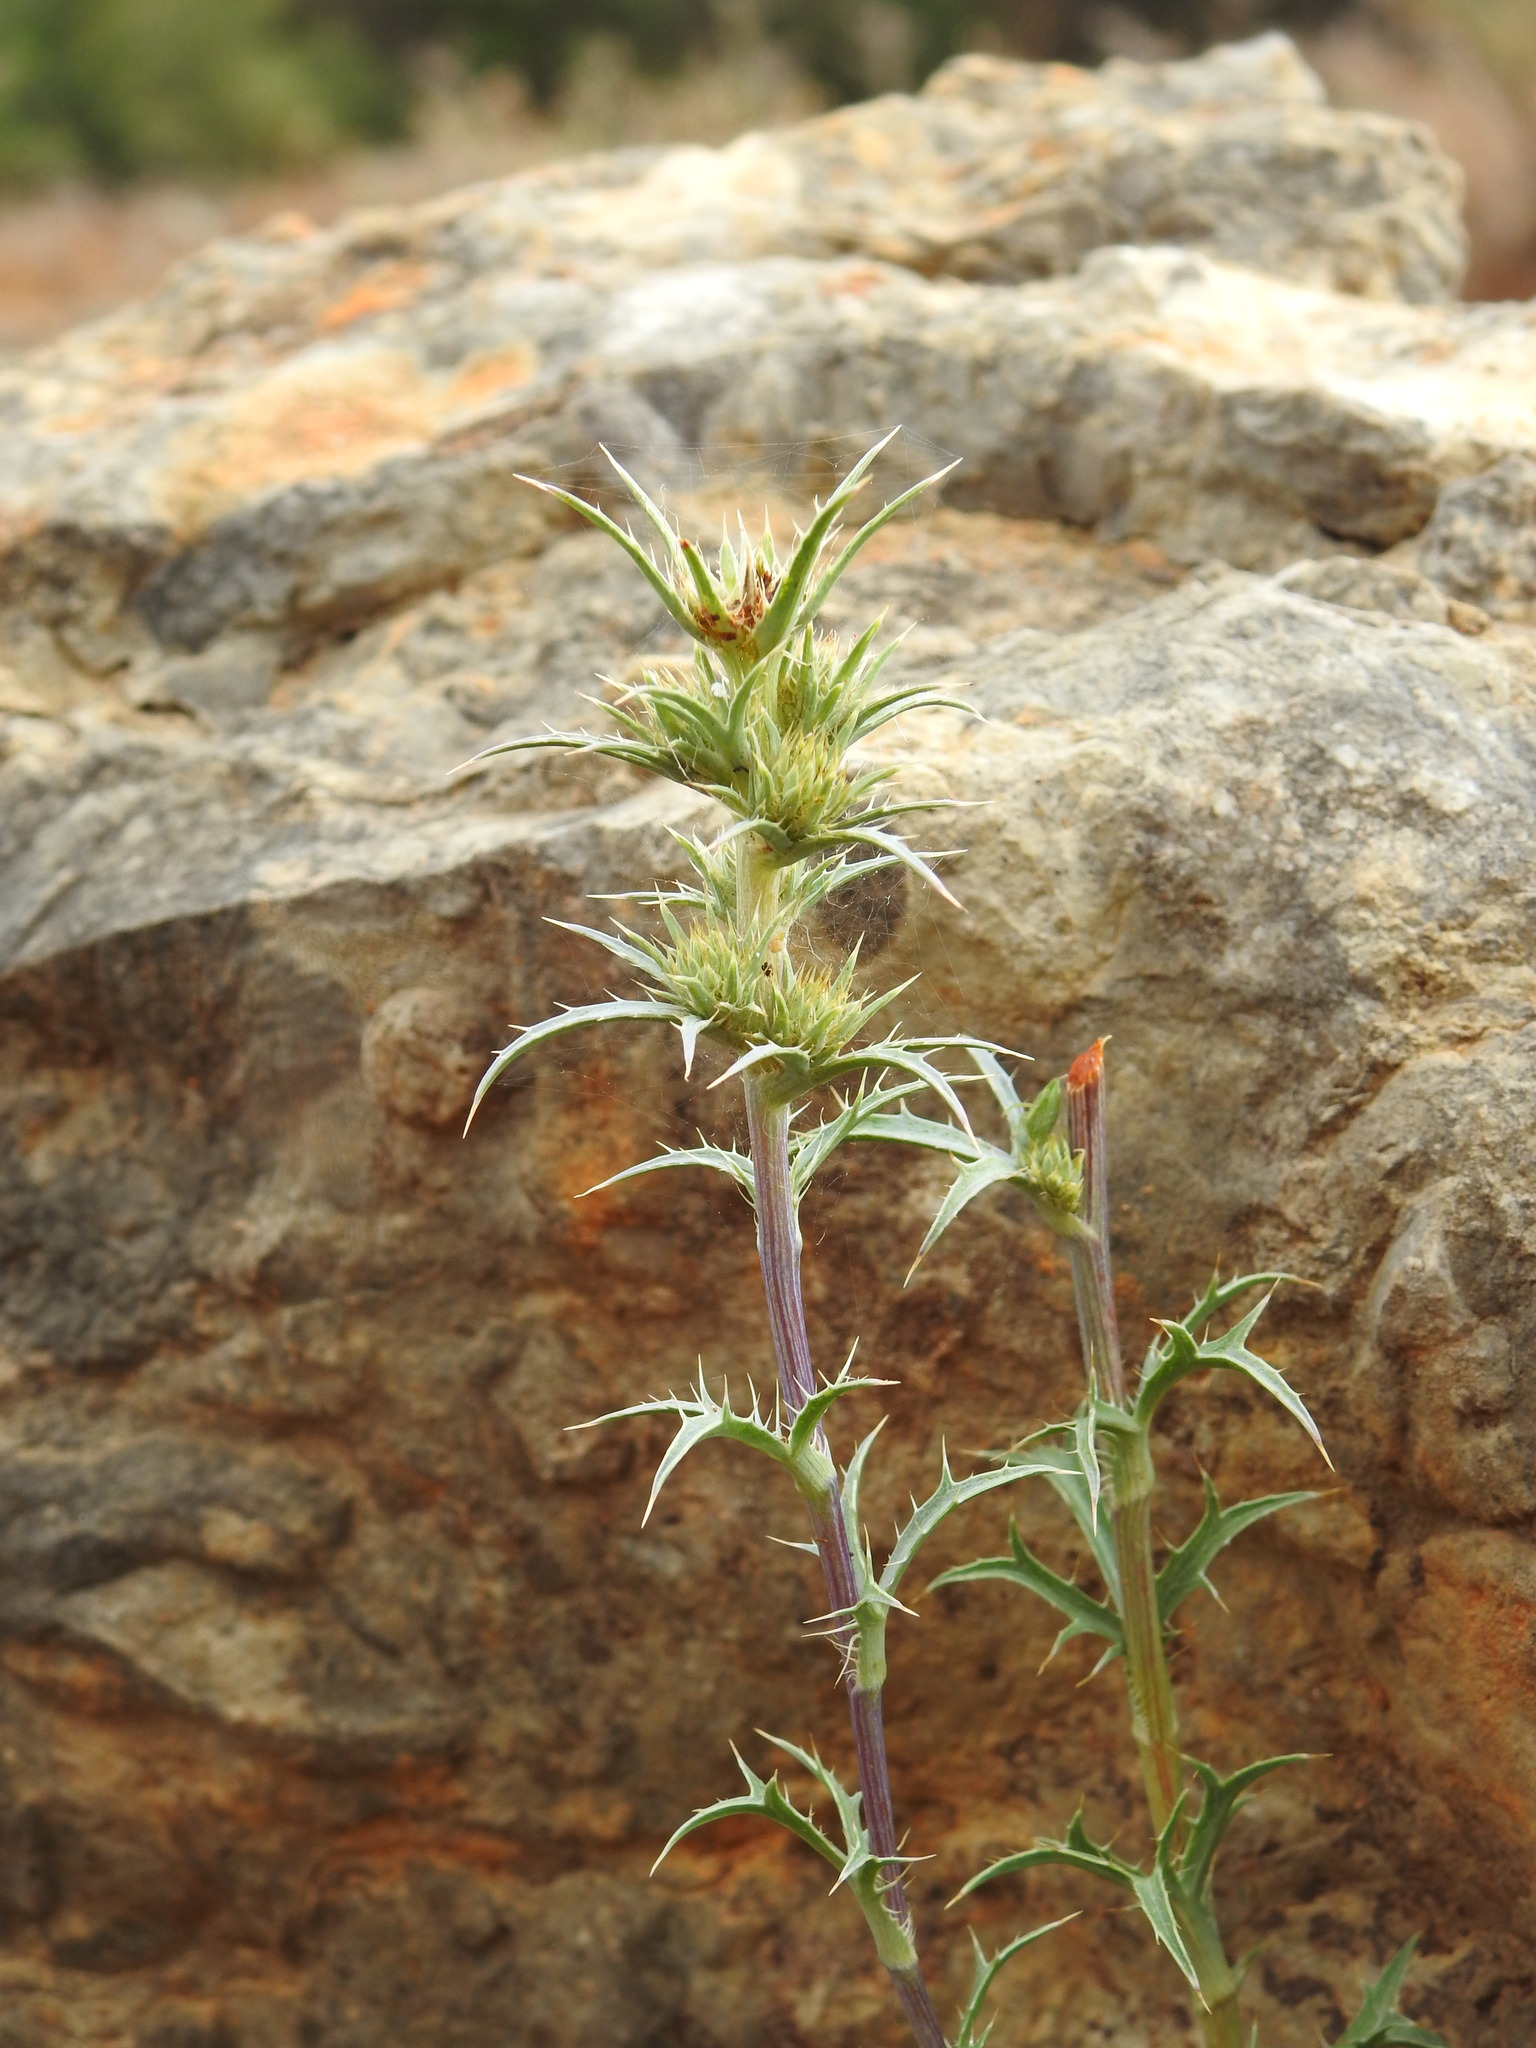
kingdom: Plantae
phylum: Tracheophyta
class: Magnoliopsida
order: Apiales
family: Apiaceae
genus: Eryngium
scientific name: Eryngium dilatatum
